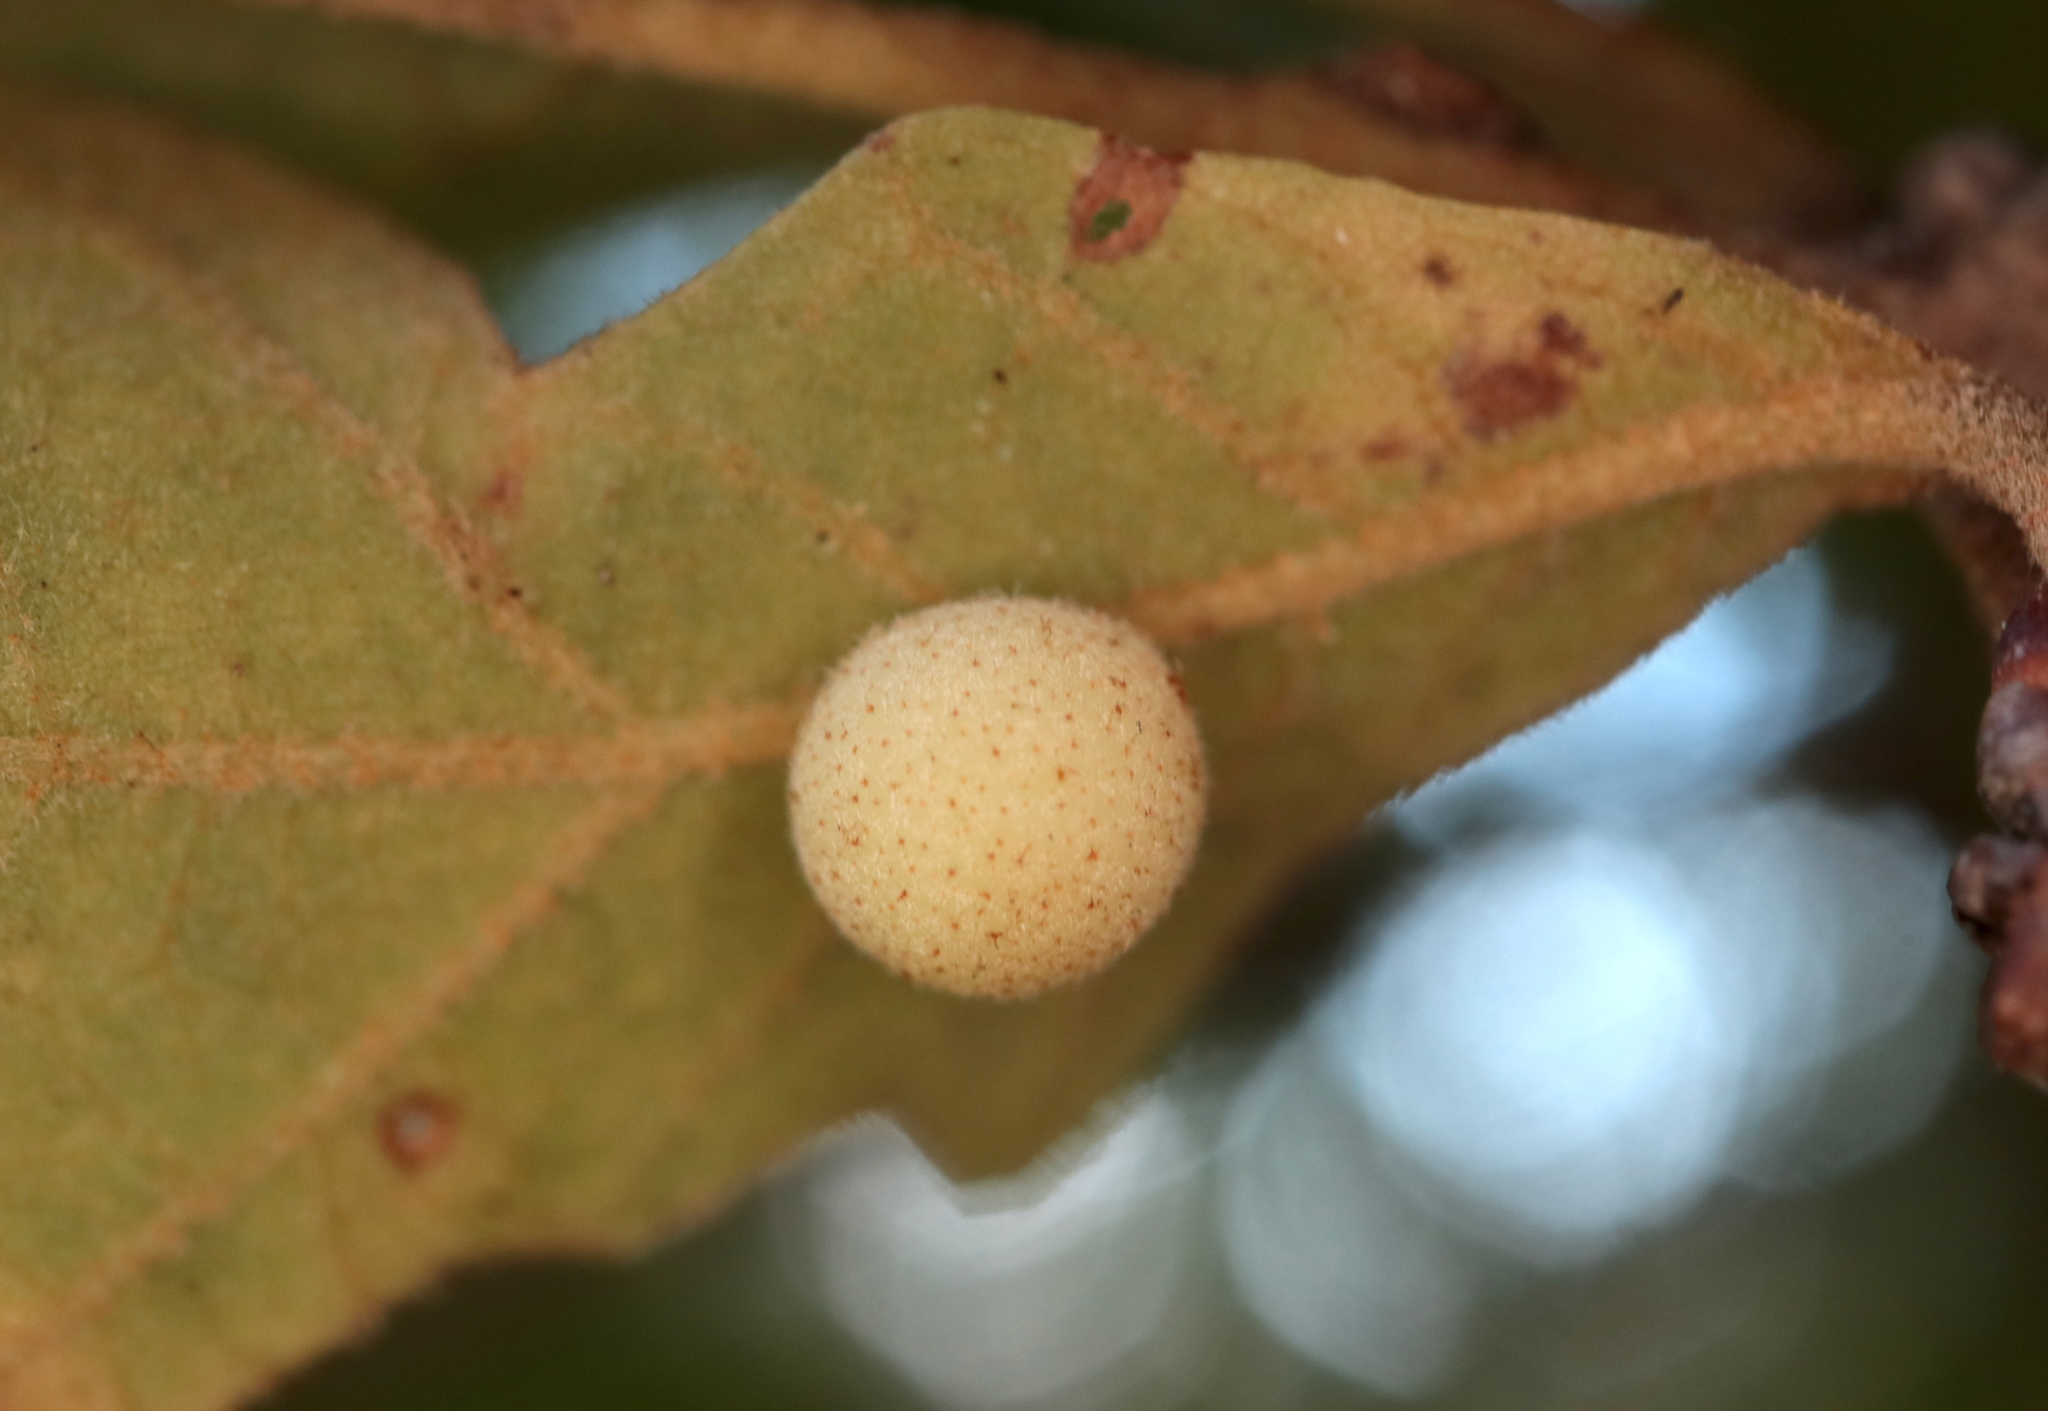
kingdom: Animalia
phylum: Arthropoda
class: Insecta
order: Hymenoptera
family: Cynipidae
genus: Atrusca
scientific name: Atrusca
